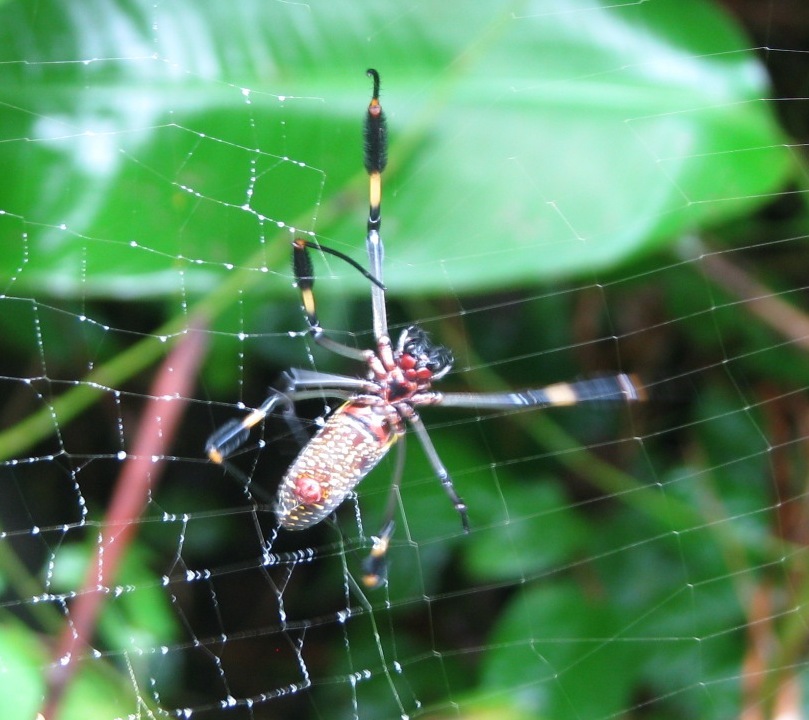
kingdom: Animalia
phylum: Arthropoda
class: Arachnida
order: Araneae
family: Araneidae
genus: Trichonephila
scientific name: Trichonephila clavipes
